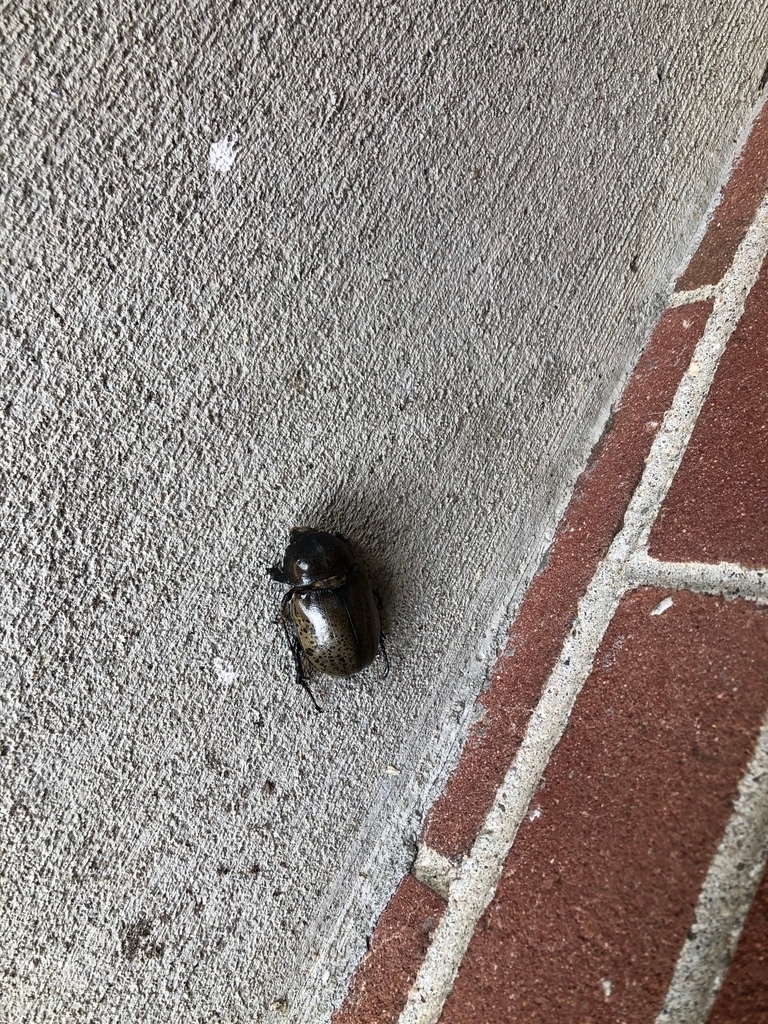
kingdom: Animalia
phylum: Arthropoda
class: Insecta
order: Coleoptera
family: Scarabaeidae
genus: Dynastes
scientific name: Dynastes tityus
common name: Eastern hercules beetle
